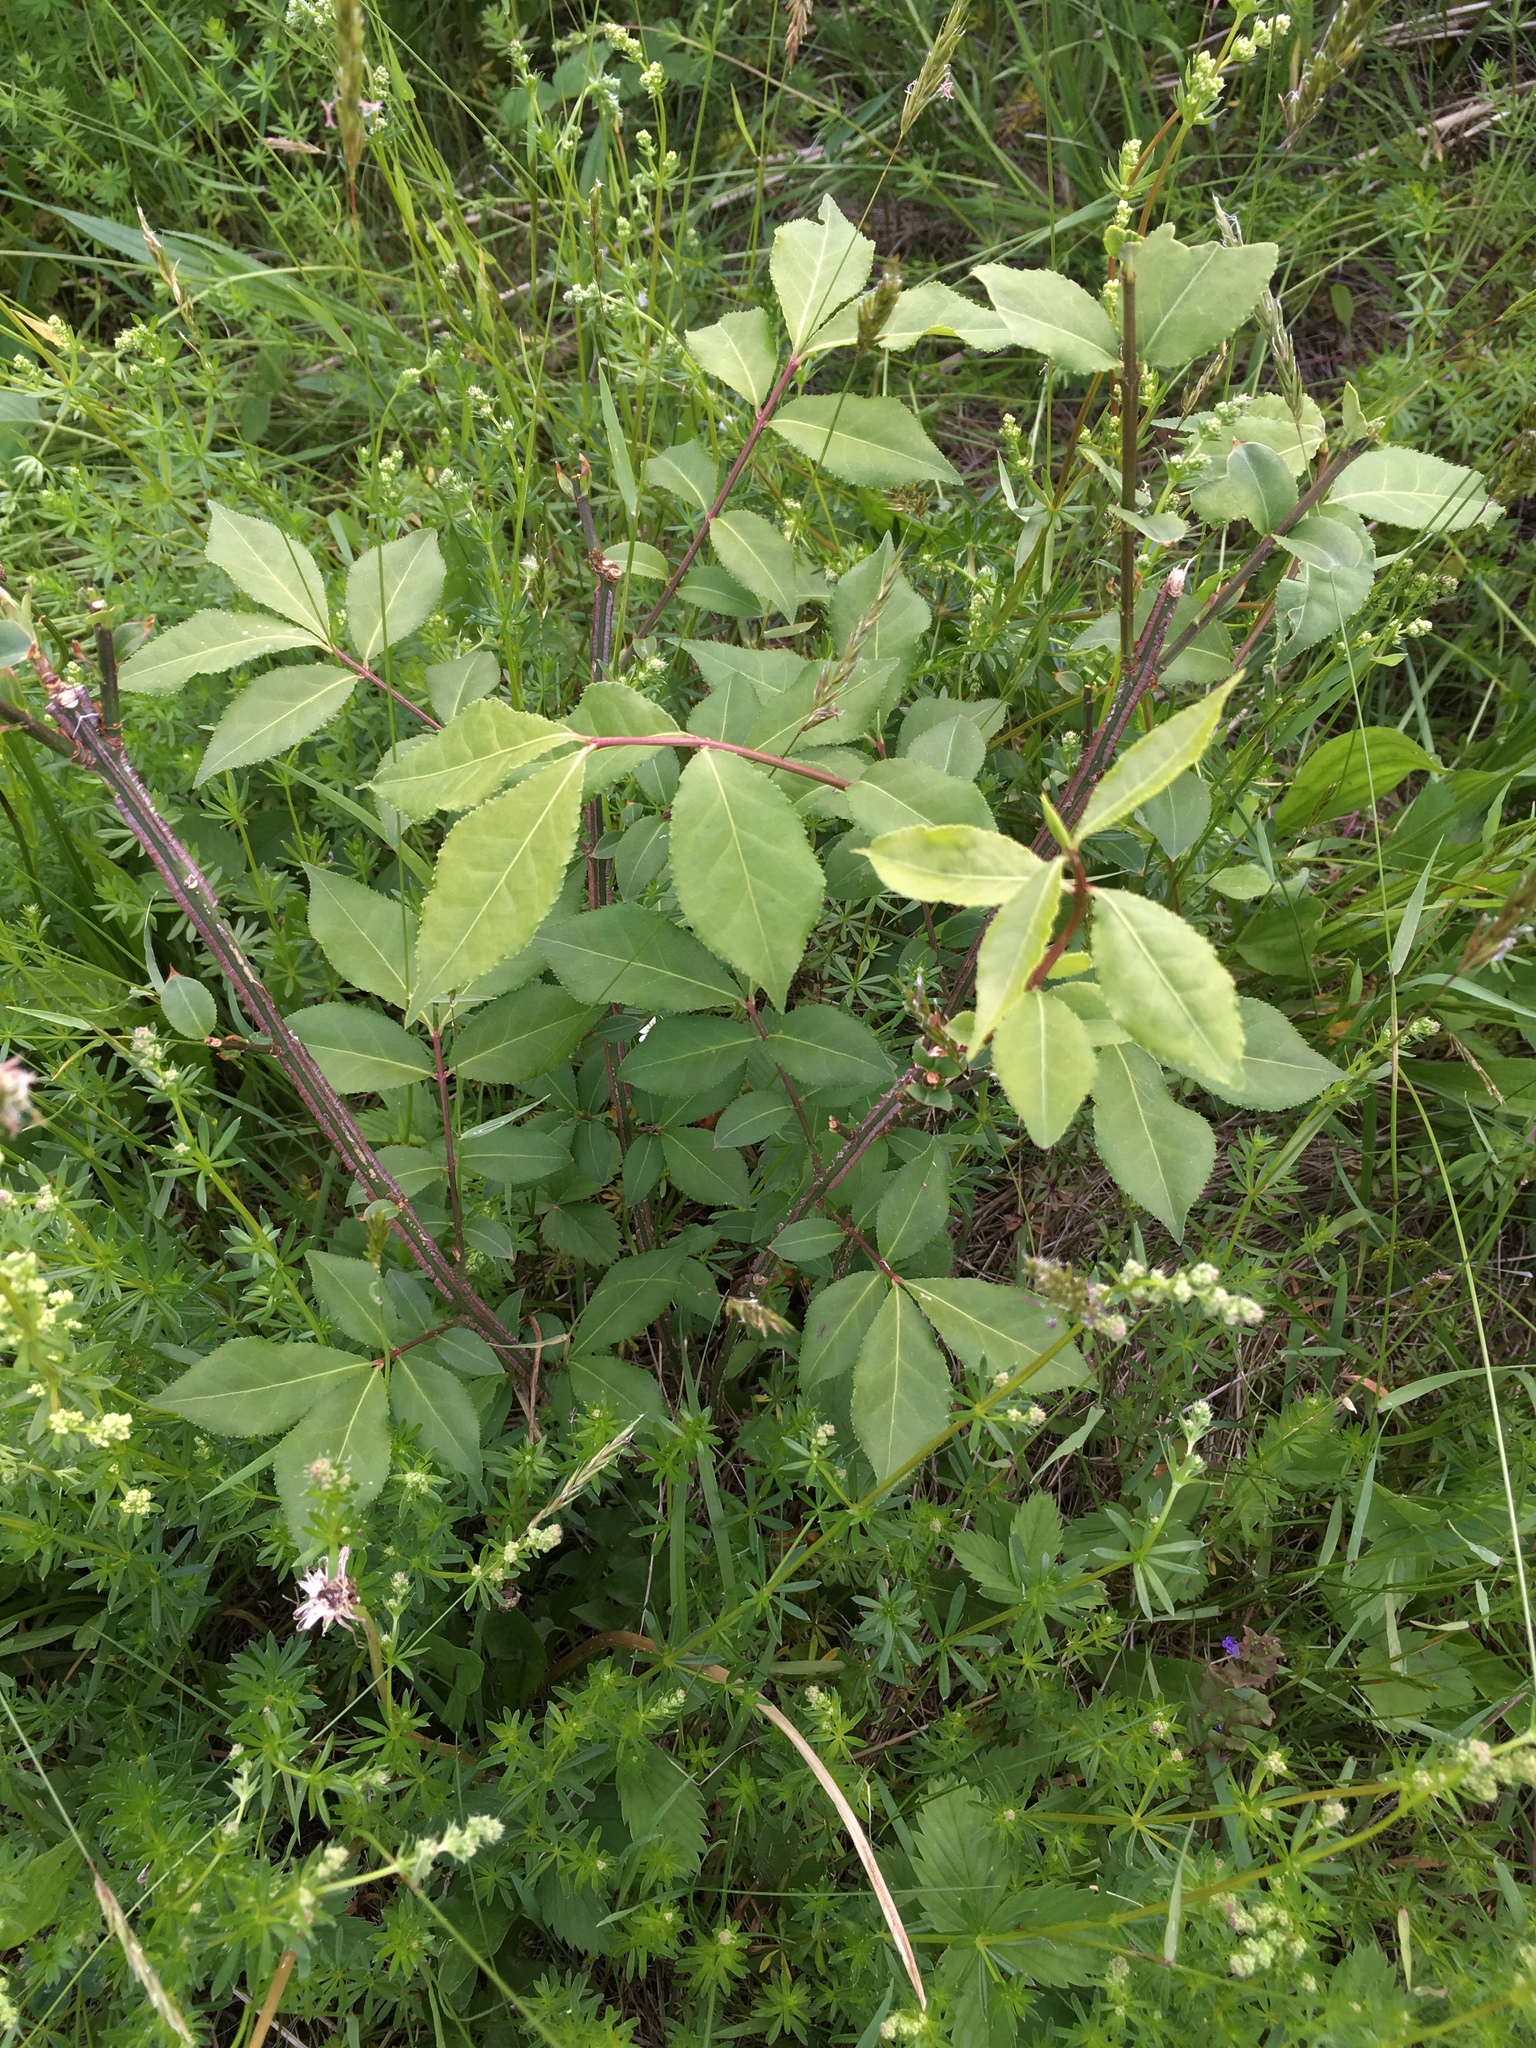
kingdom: Plantae
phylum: Tracheophyta
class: Magnoliopsida
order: Celastrales
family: Celastraceae
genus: Euonymus
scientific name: Euonymus alatus
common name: Winged euonymus
